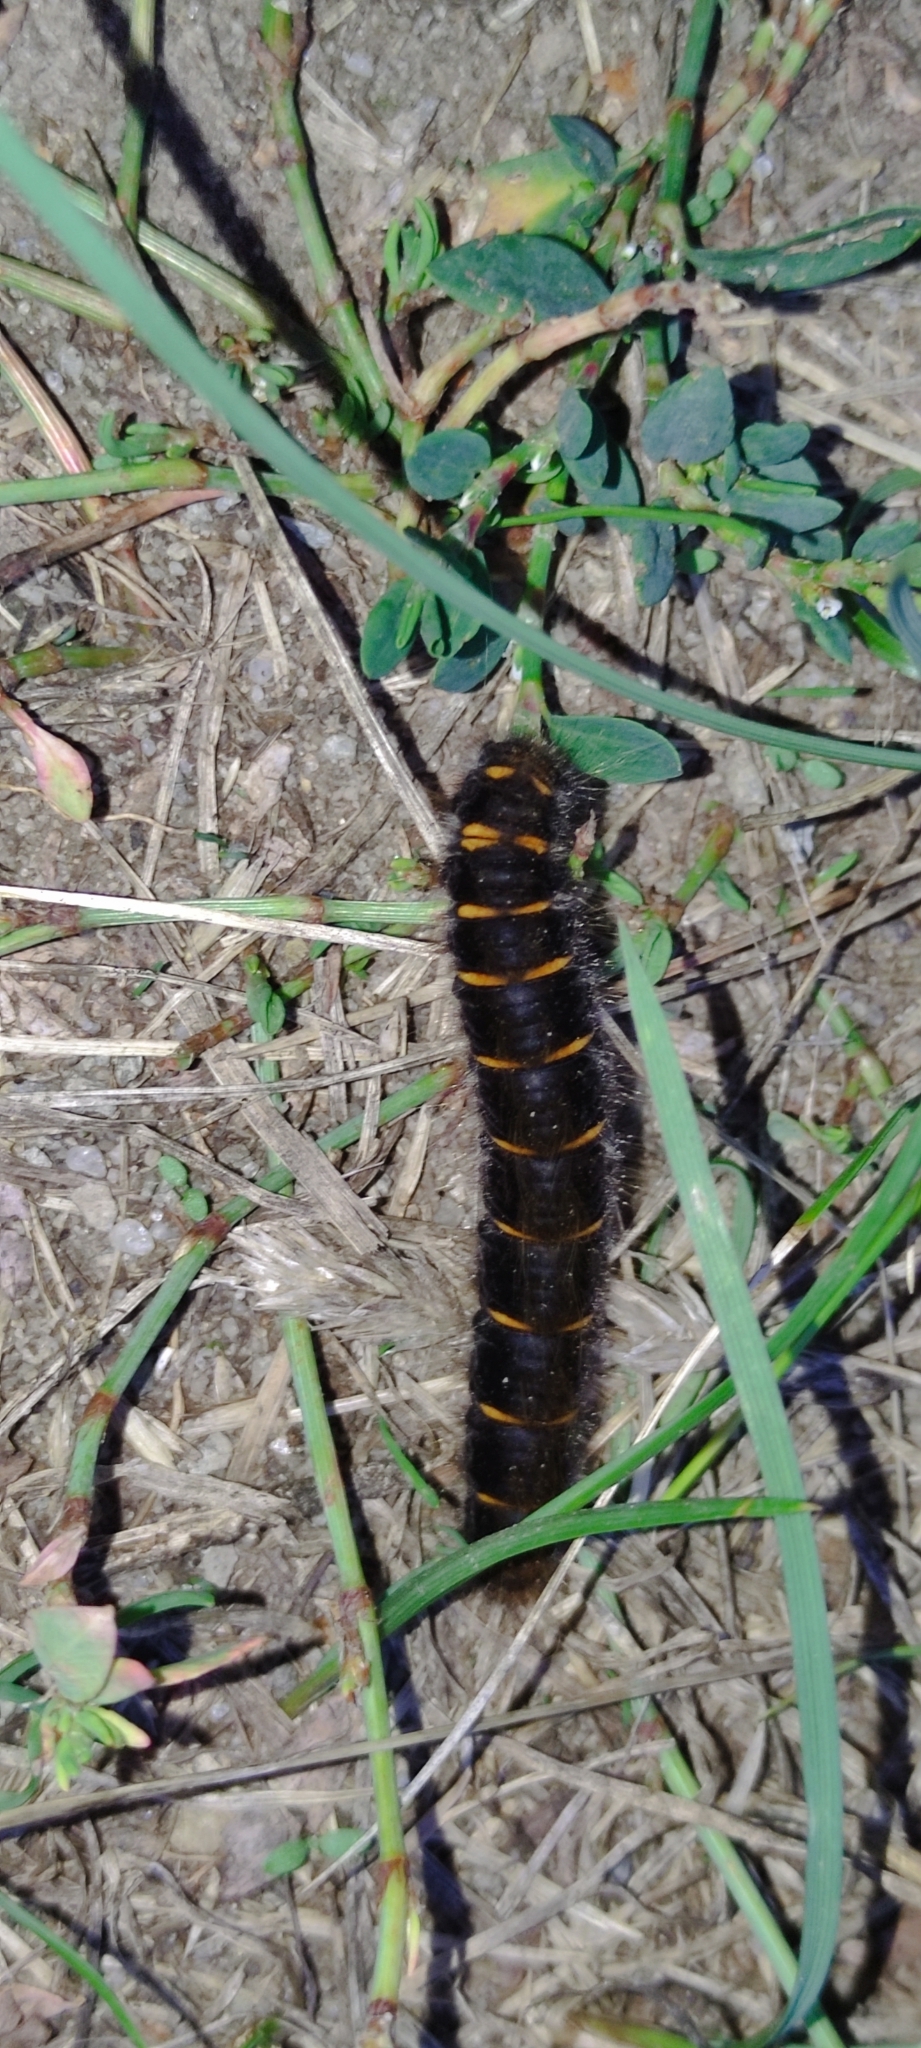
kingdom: Animalia
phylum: Arthropoda
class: Insecta
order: Lepidoptera
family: Lasiocampidae
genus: Macrothylacia
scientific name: Macrothylacia rubi
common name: Fox moth
